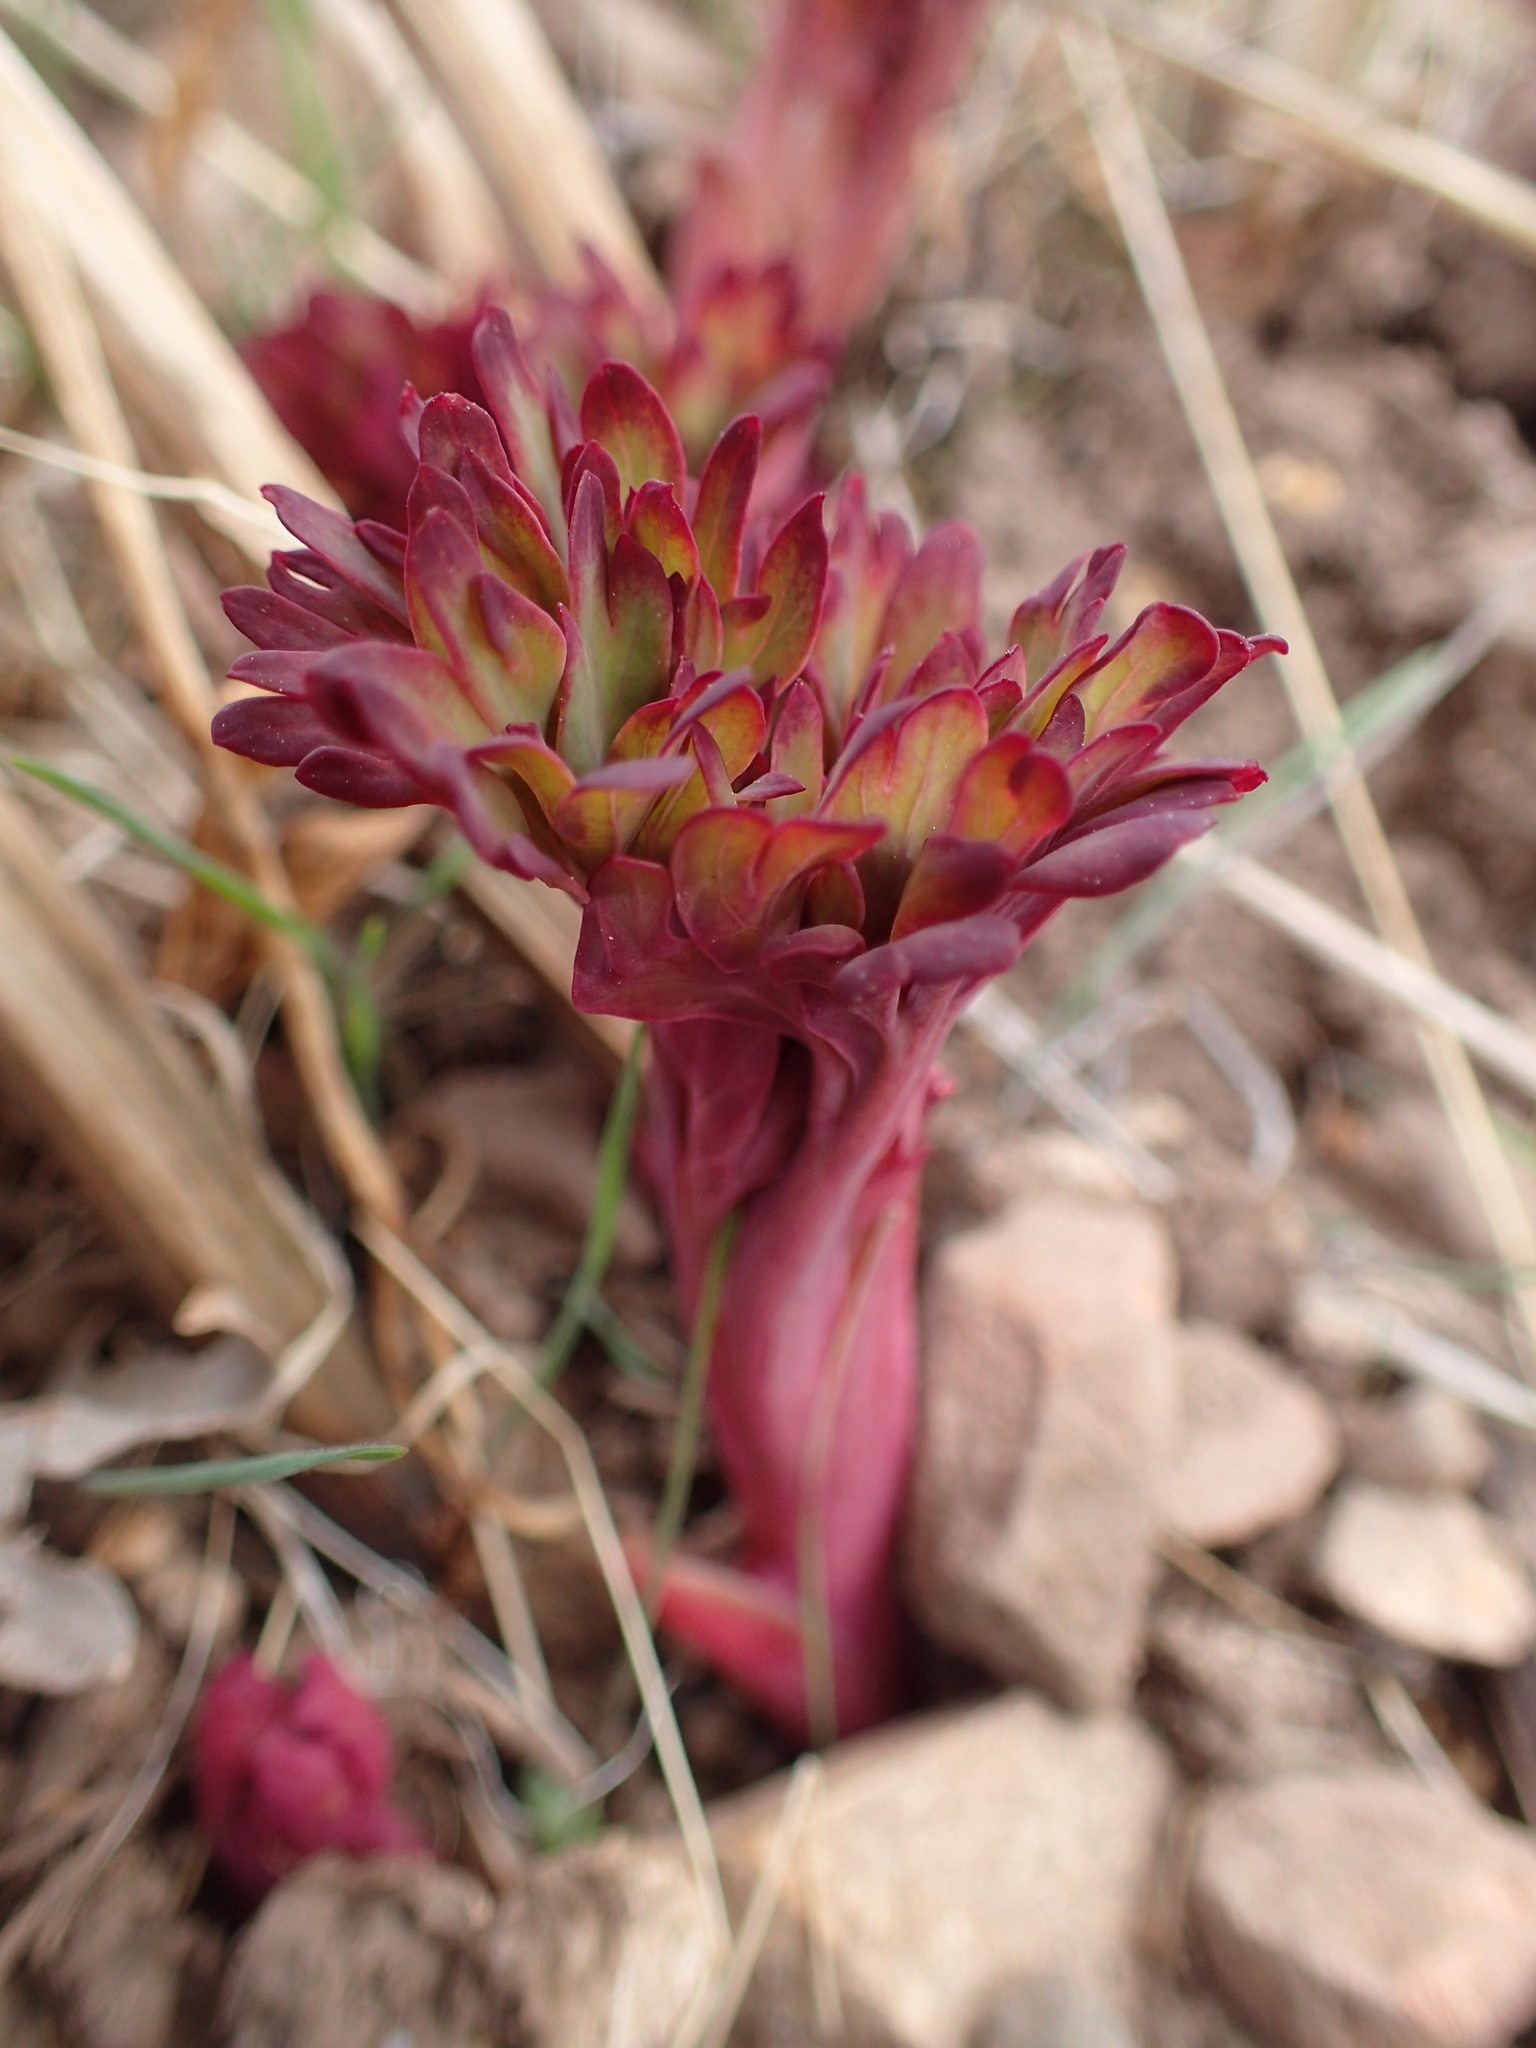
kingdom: Plantae
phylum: Tracheophyta
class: Magnoliopsida
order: Saxifragales
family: Paeoniaceae
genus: Paeonia
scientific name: Paeonia californica
